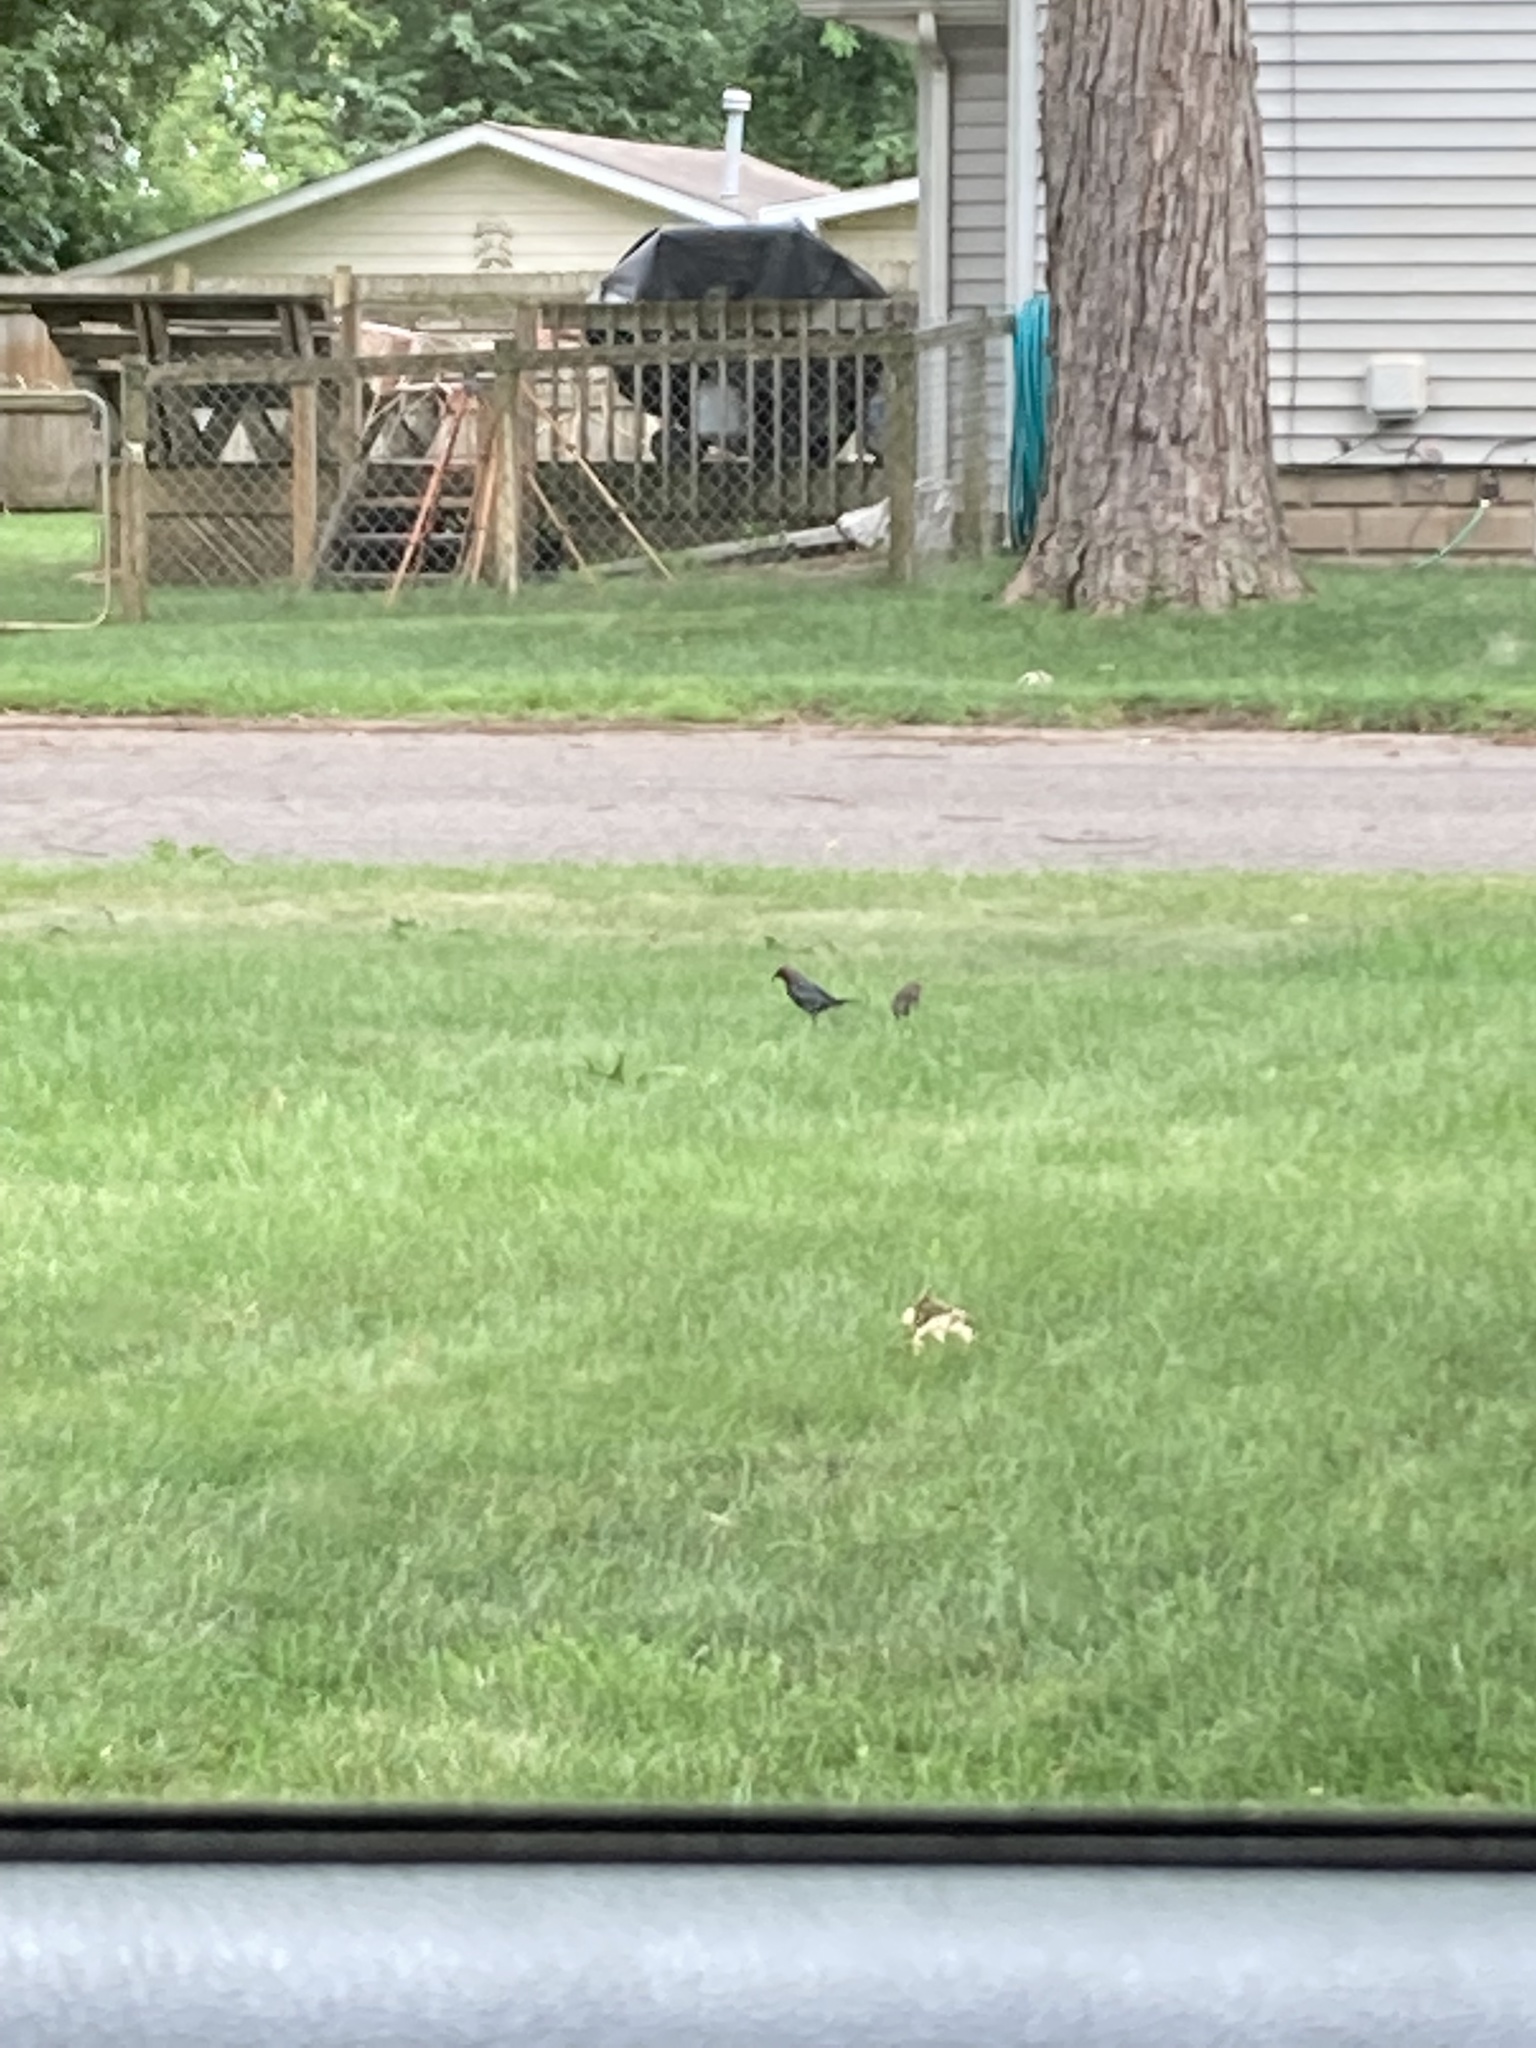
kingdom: Animalia
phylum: Chordata
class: Aves
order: Passeriformes
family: Icteridae
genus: Molothrus
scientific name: Molothrus ater
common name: Brown-headed cowbird
